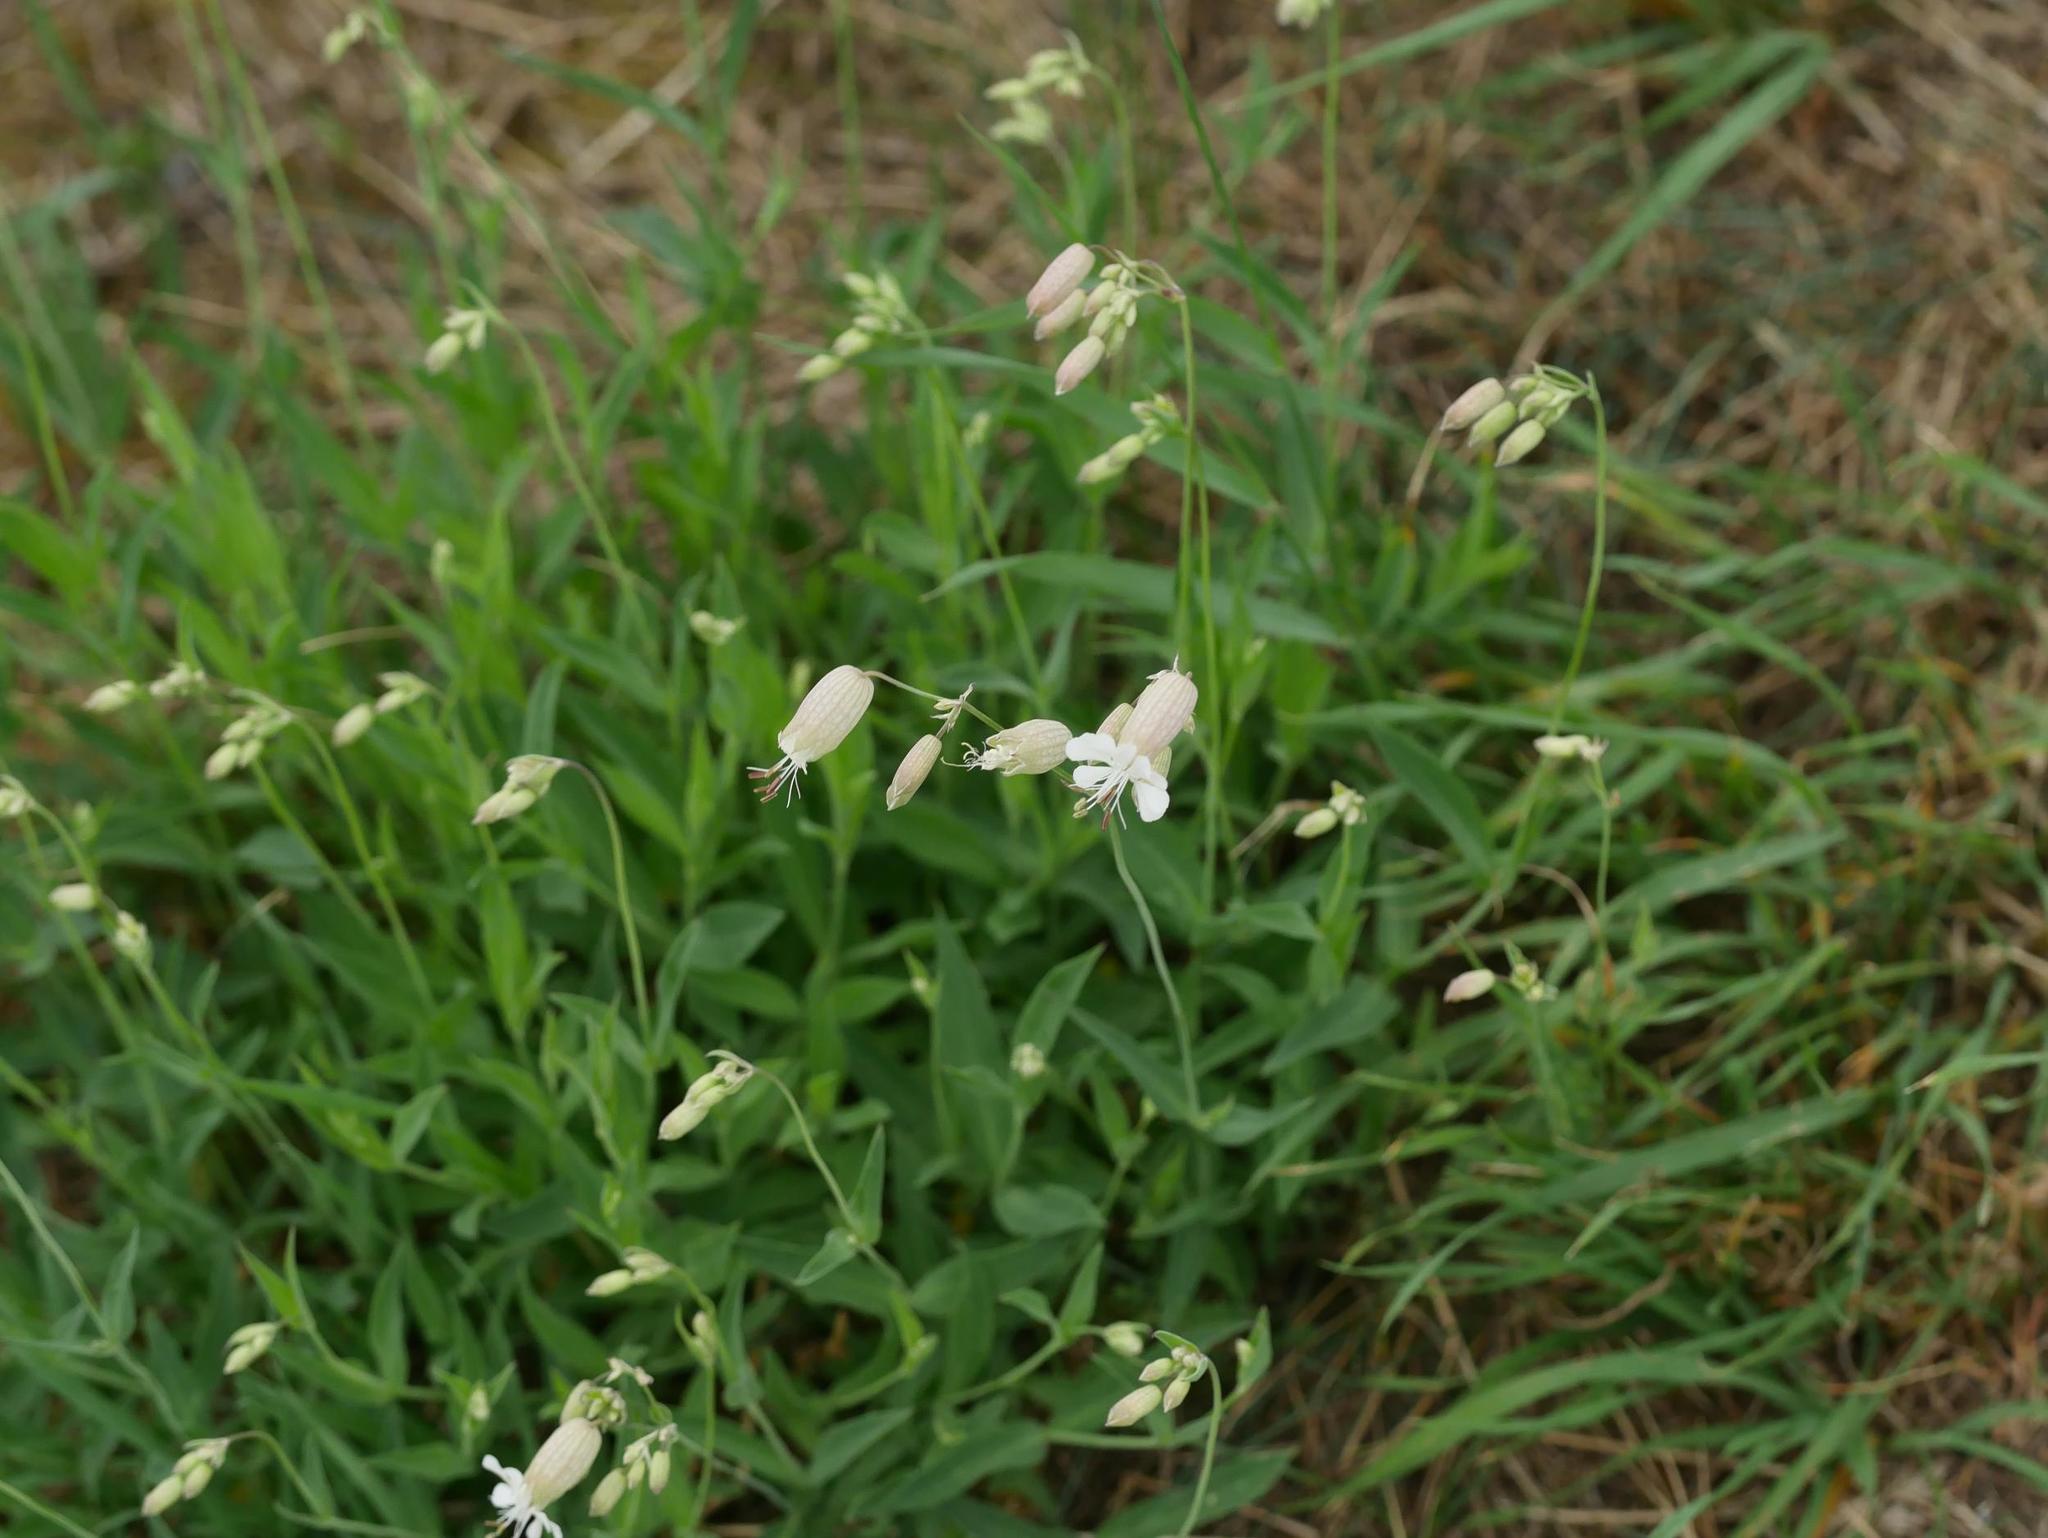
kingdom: Plantae
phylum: Tracheophyta
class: Magnoliopsida
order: Caryophyllales
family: Caryophyllaceae
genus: Silene
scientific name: Silene vulgaris
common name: Bladder campion
